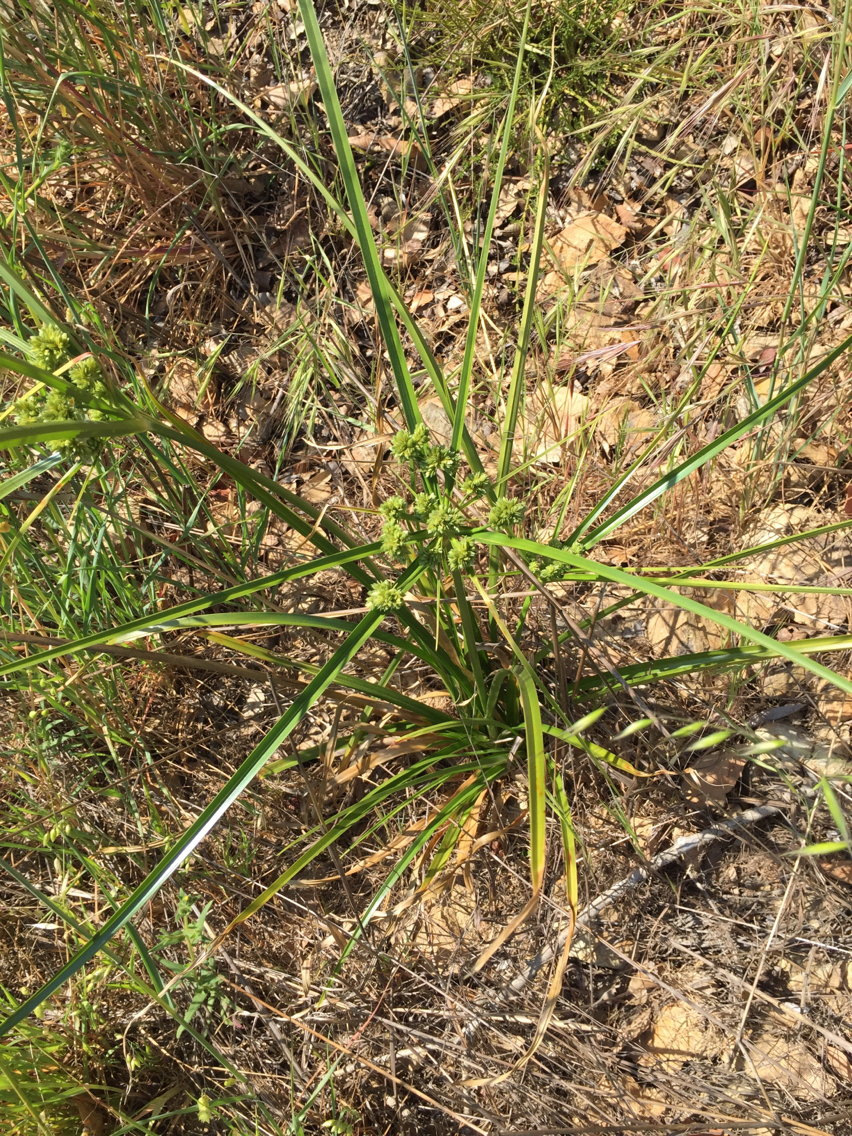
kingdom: Plantae
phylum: Tracheophyta
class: Liliopsida
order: Poales
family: Cyperaceae
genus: Cyperus
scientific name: Cyperus eragrostis
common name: Tall flatsedge
